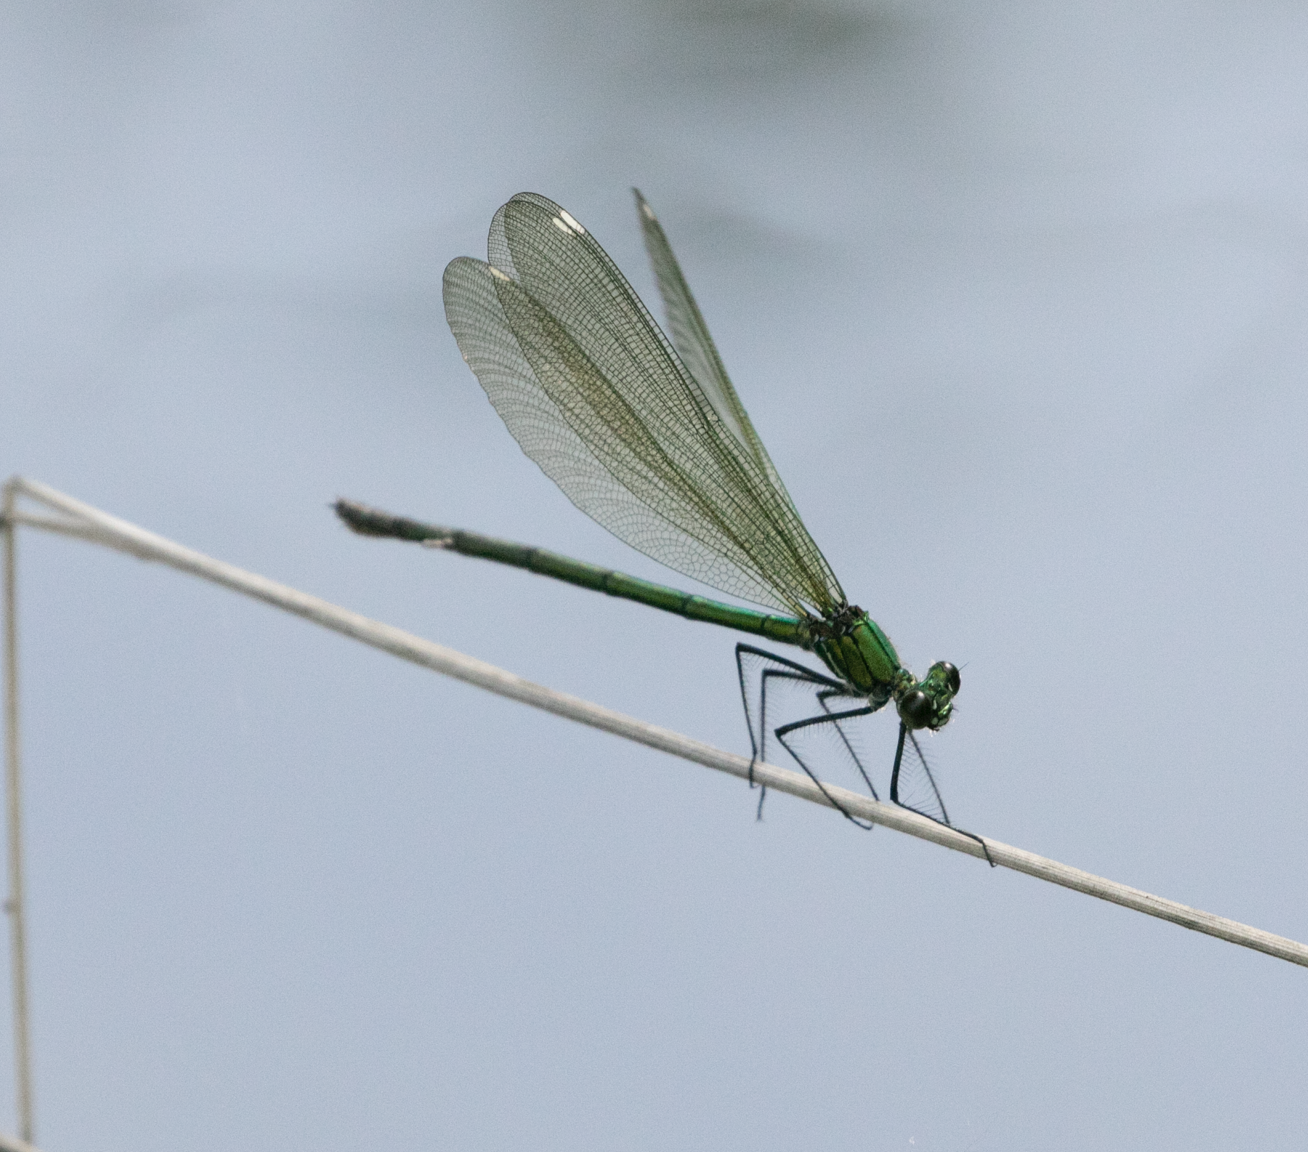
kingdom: Animalia
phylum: Arthropoda
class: Insecta
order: Odonata
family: Calopterygidae
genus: Calopteryx
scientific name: Calopteryx splendens
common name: Banded demoiselle
